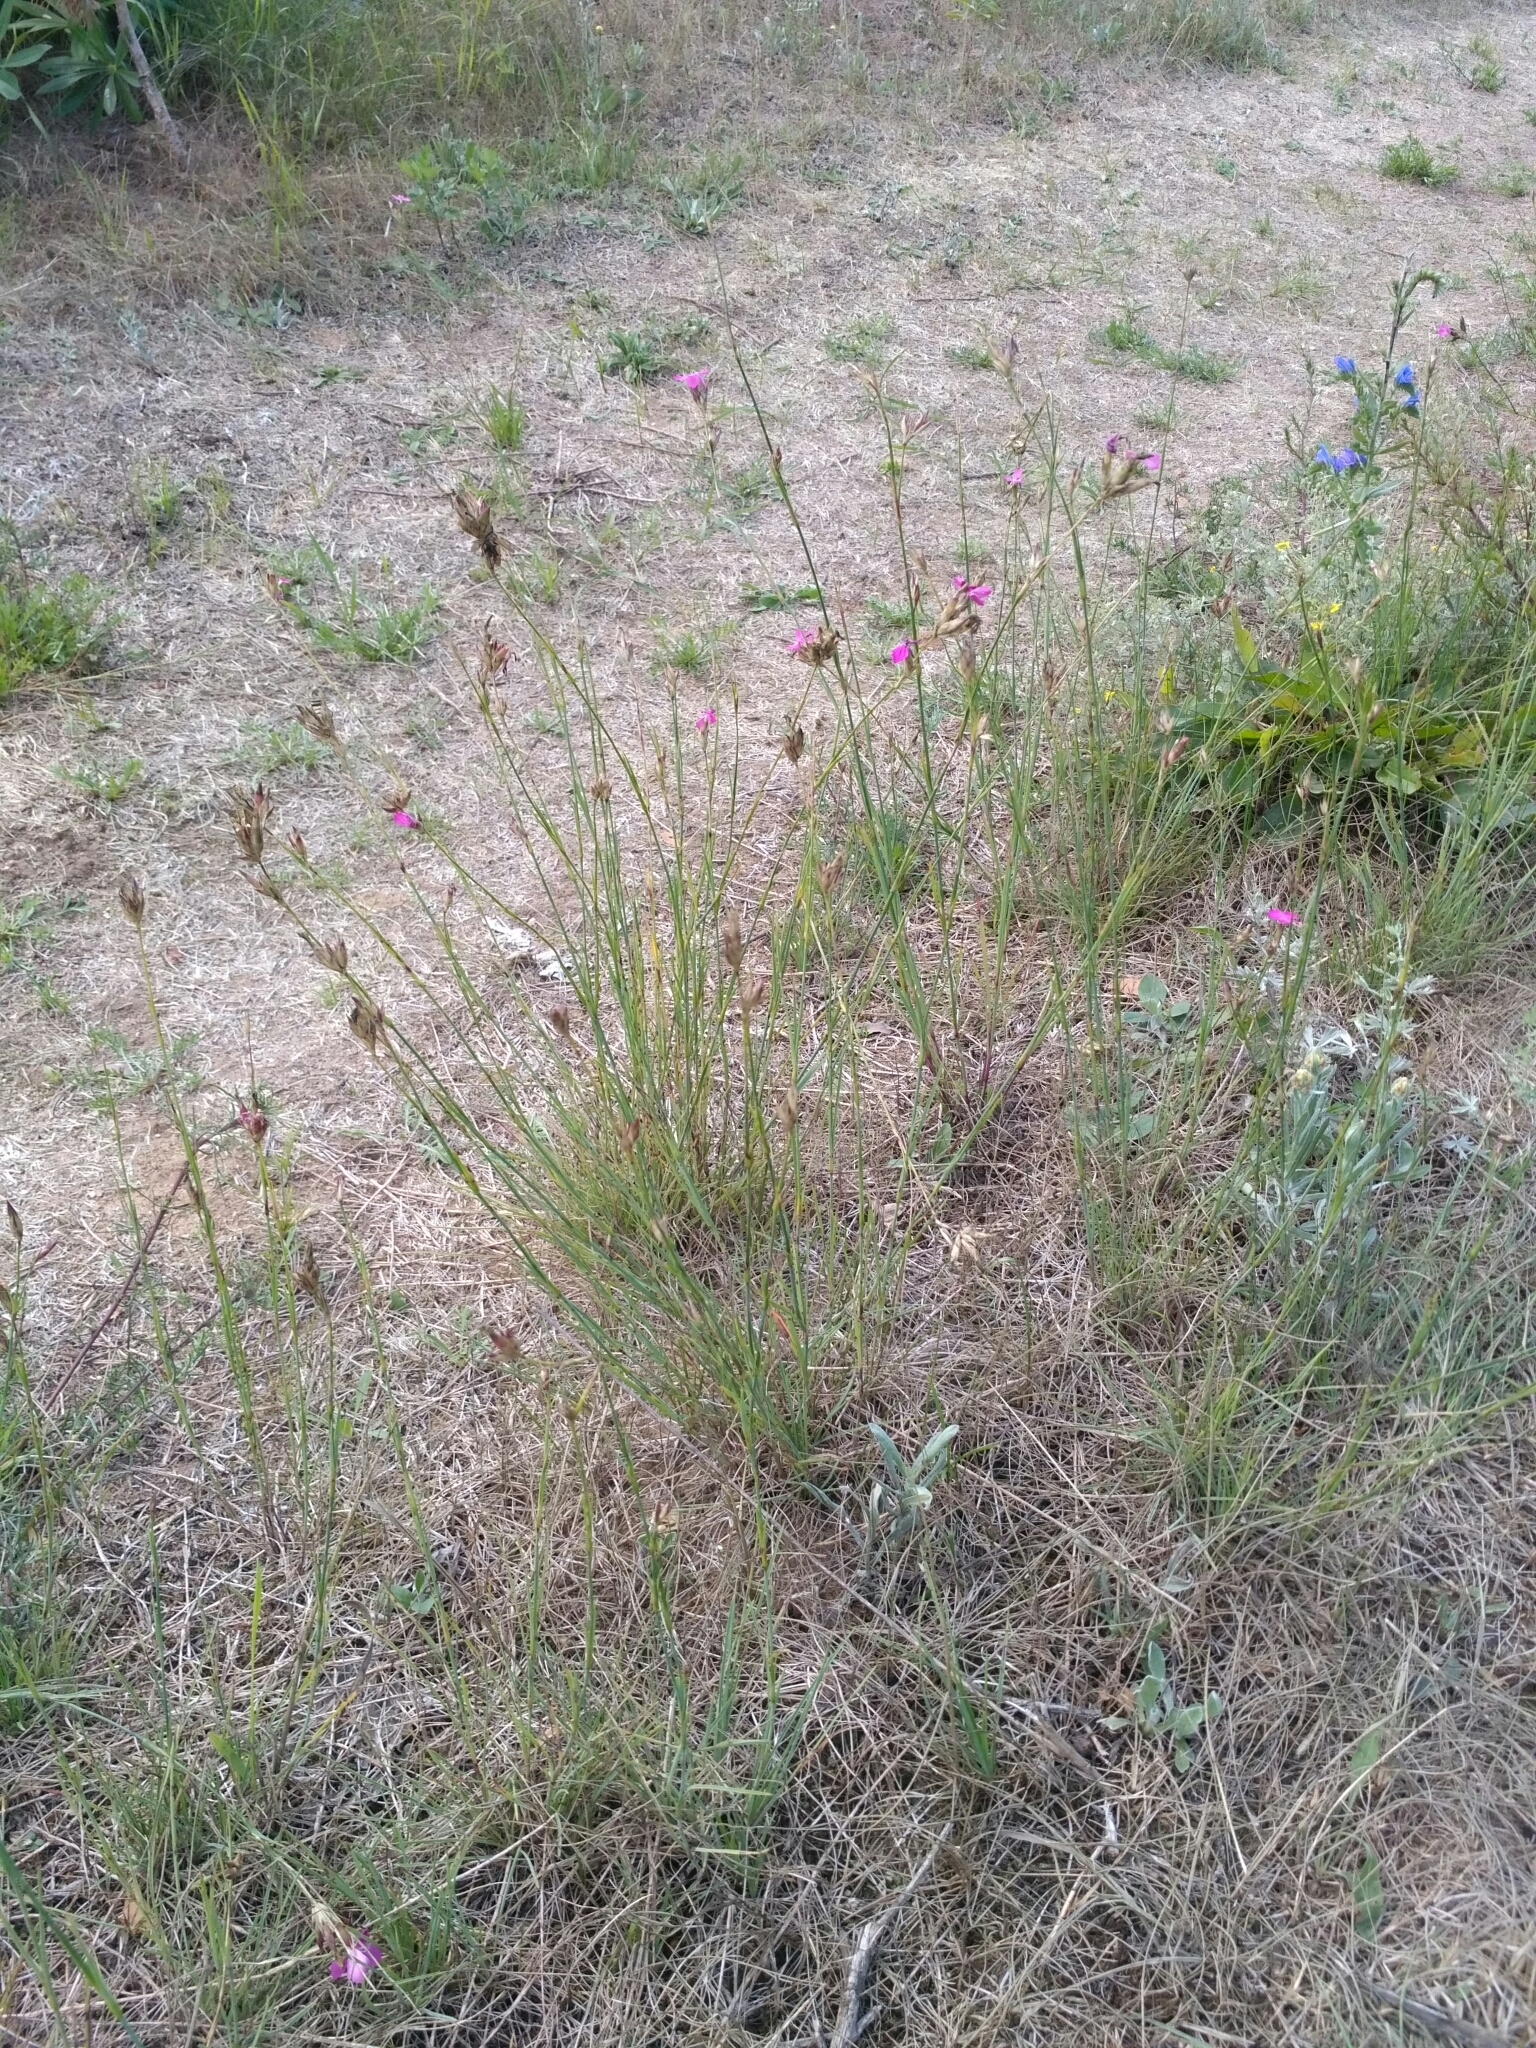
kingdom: Plantae
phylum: Tracheophyta
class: Magnoliopsida
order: Caryophyllales
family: Caryophyllaceae
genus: Dianthus
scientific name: Dianthus borbasii
